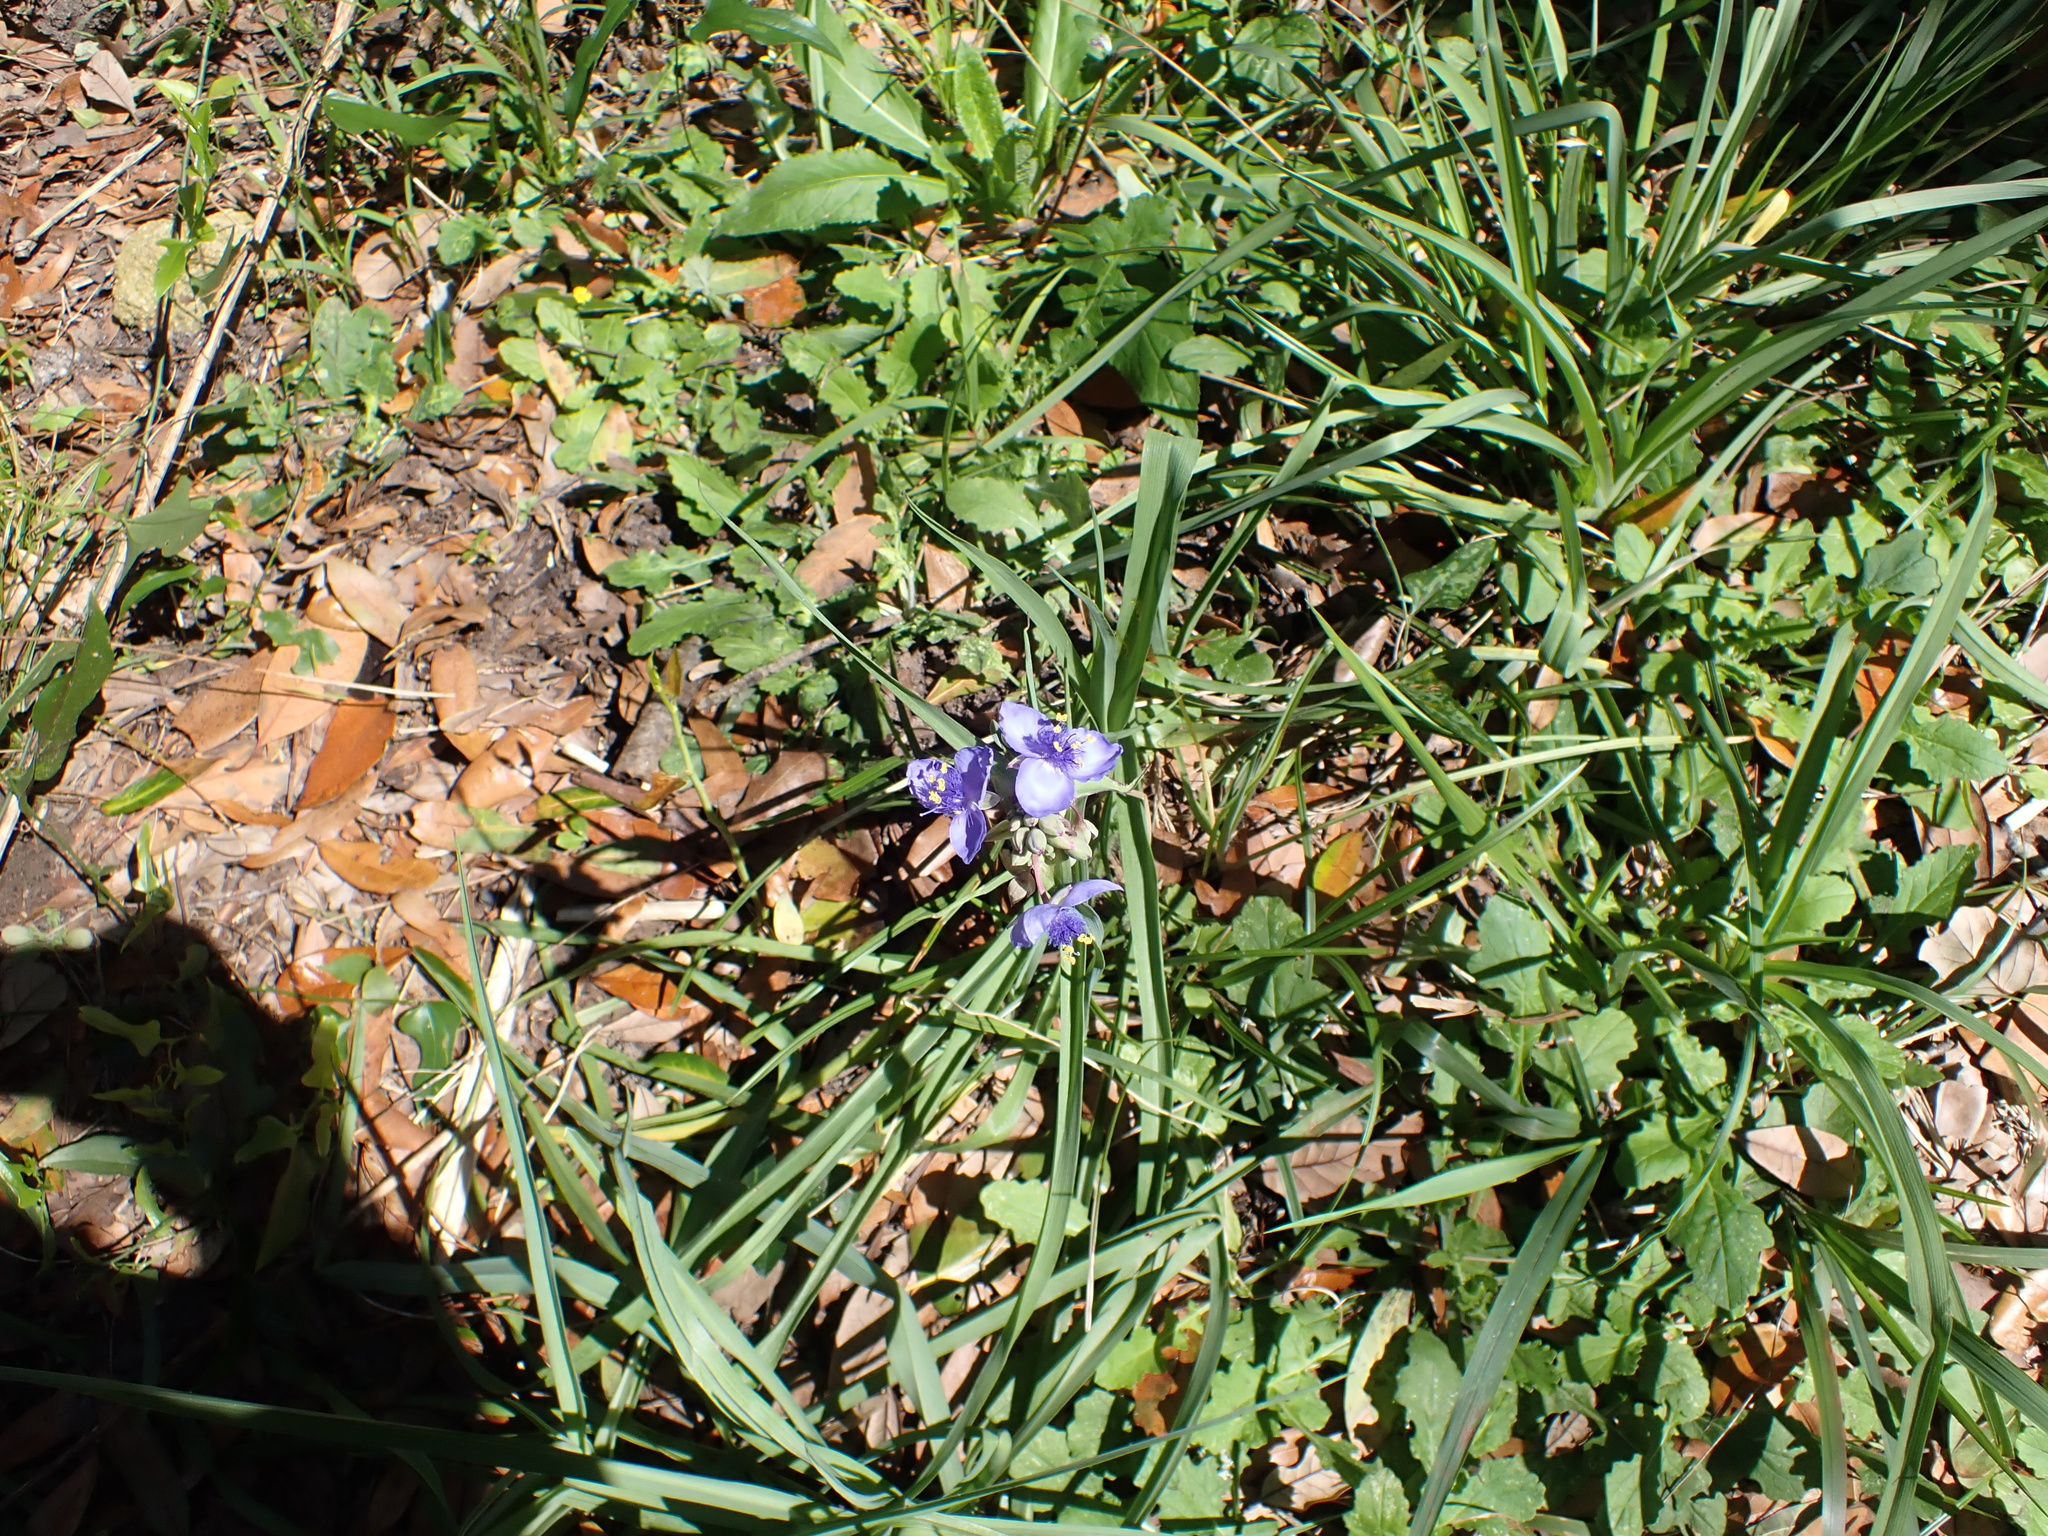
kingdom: Plantae
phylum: Tracheophyta
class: Liliopsida
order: Commelinales
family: Commelinaceae
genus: Tradescantia
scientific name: Tradescantia ohiensis
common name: Ohio spiderwort
